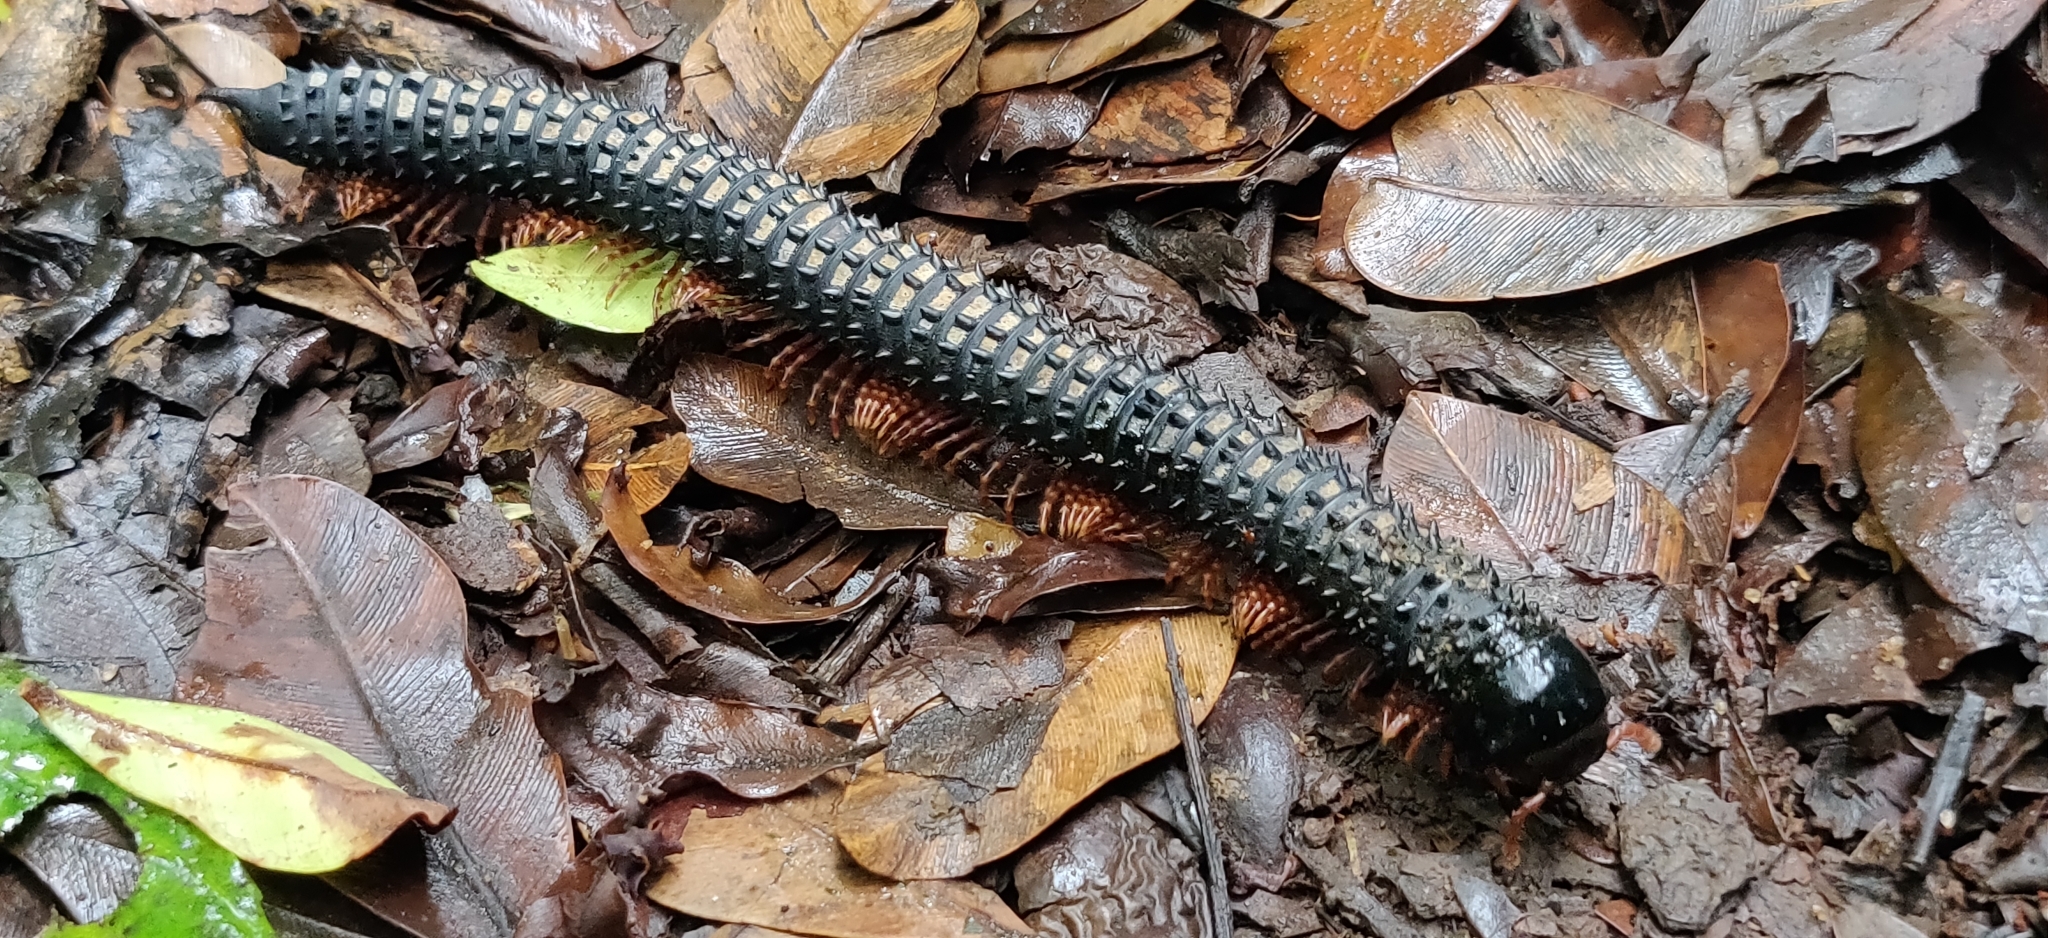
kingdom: Animalia
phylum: Arthropoda
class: Diplopoda
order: Spirobolida
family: Pachybolidae
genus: Eucentrobolus
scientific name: Eucentrobolus tamulus
